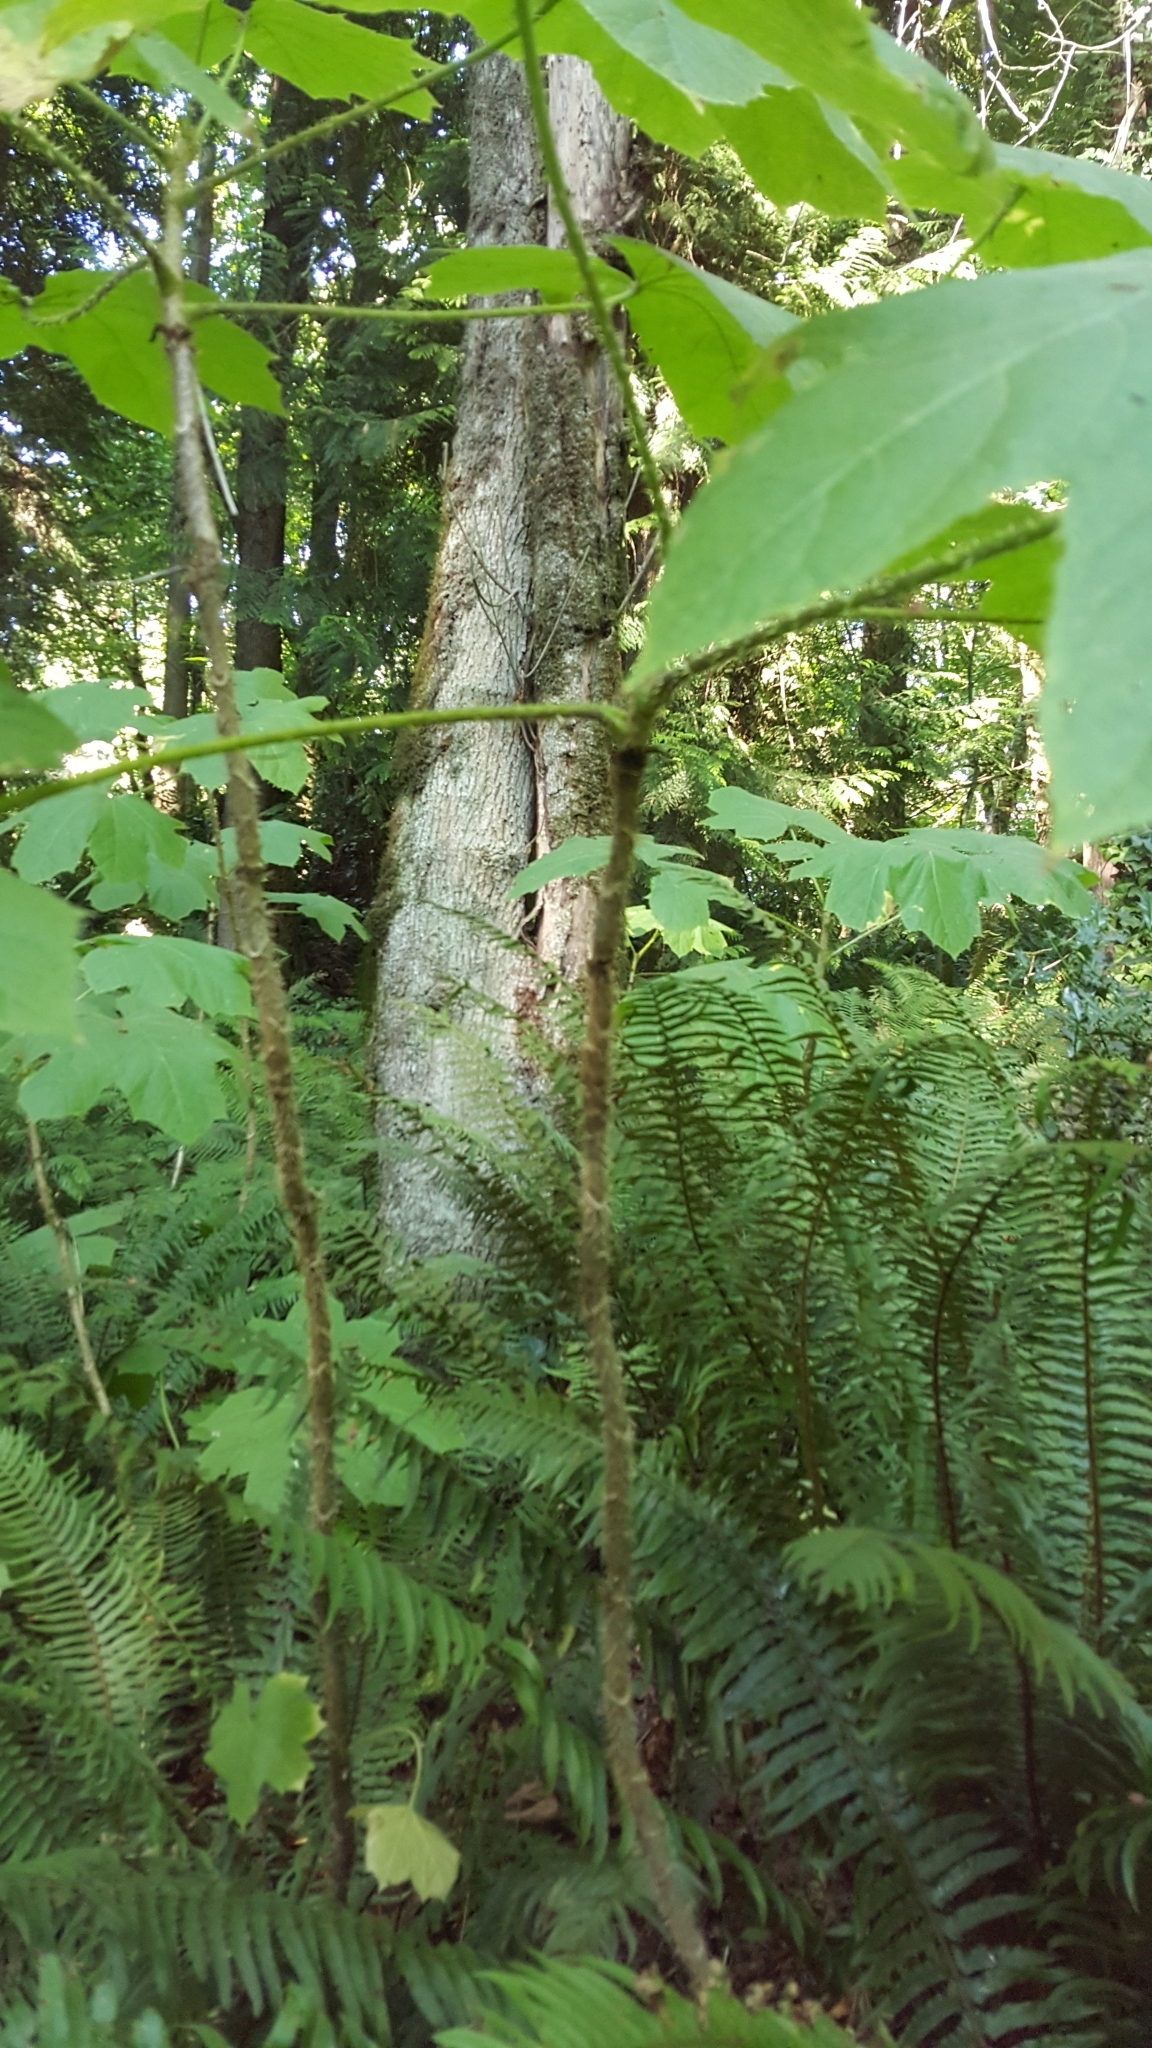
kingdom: Plantae
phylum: Tracheophyta
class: Magnoliopsida
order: Apiales
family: Araliaceae
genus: Oplopanax
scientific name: Oplopanax horridus
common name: Devil's walking-stick
